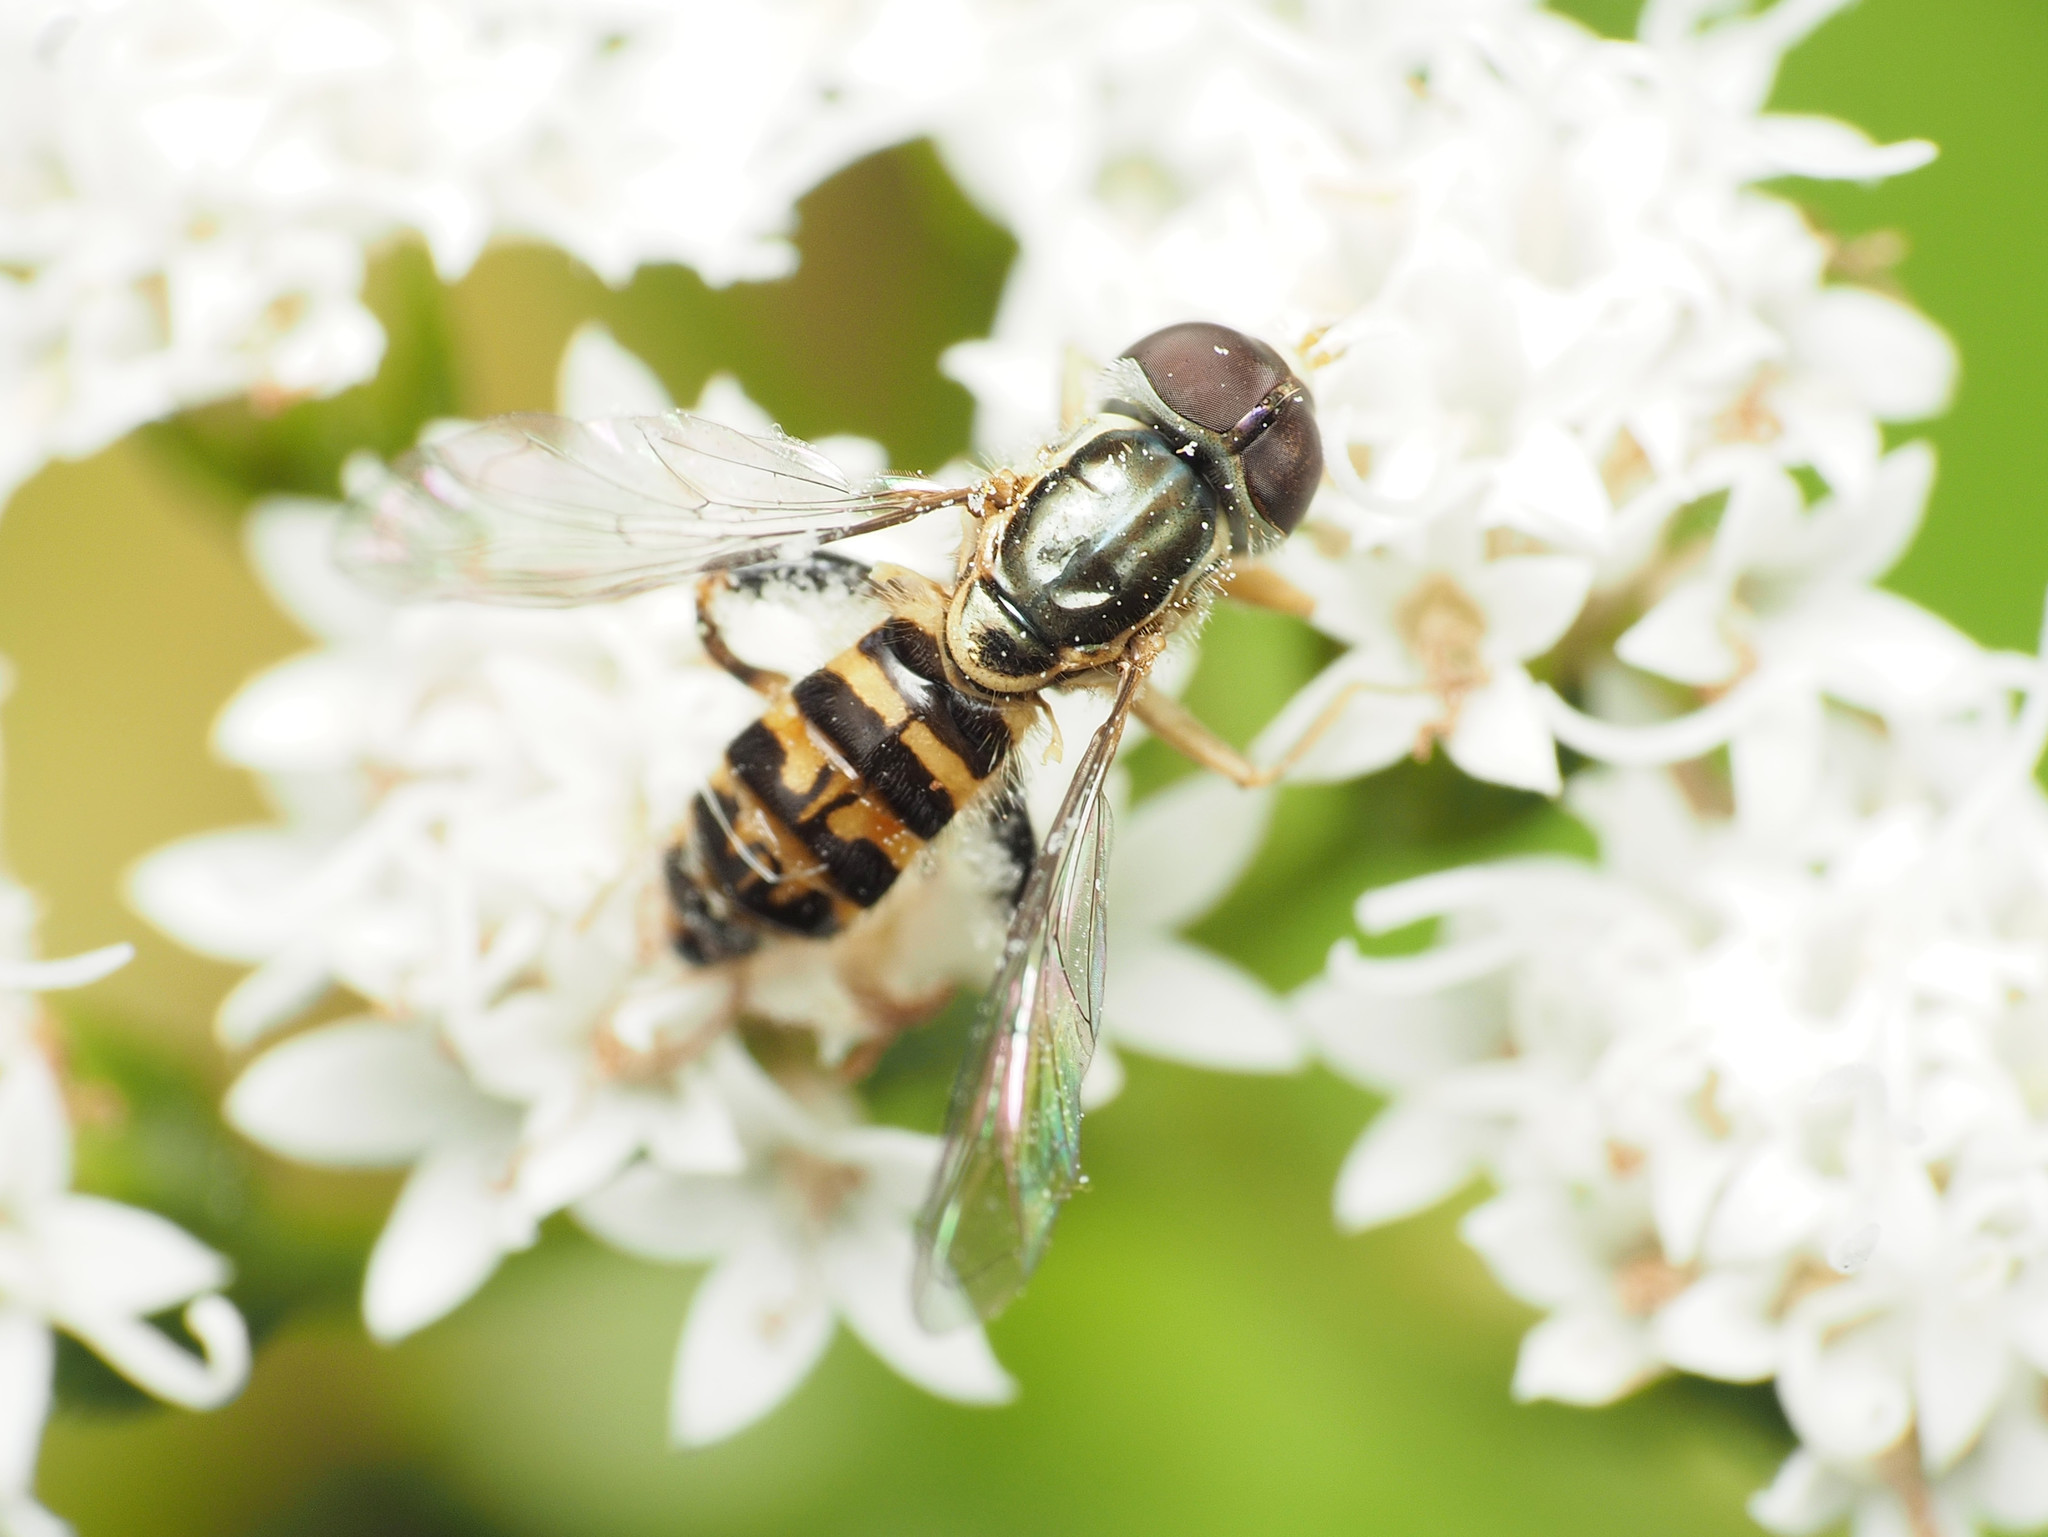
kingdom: Animalia
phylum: Arthropoda
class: Insecta
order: Diptera
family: Syrphidae
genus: Toxomerus
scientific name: Toxomerus geminatus
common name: Eastern calligrapher
